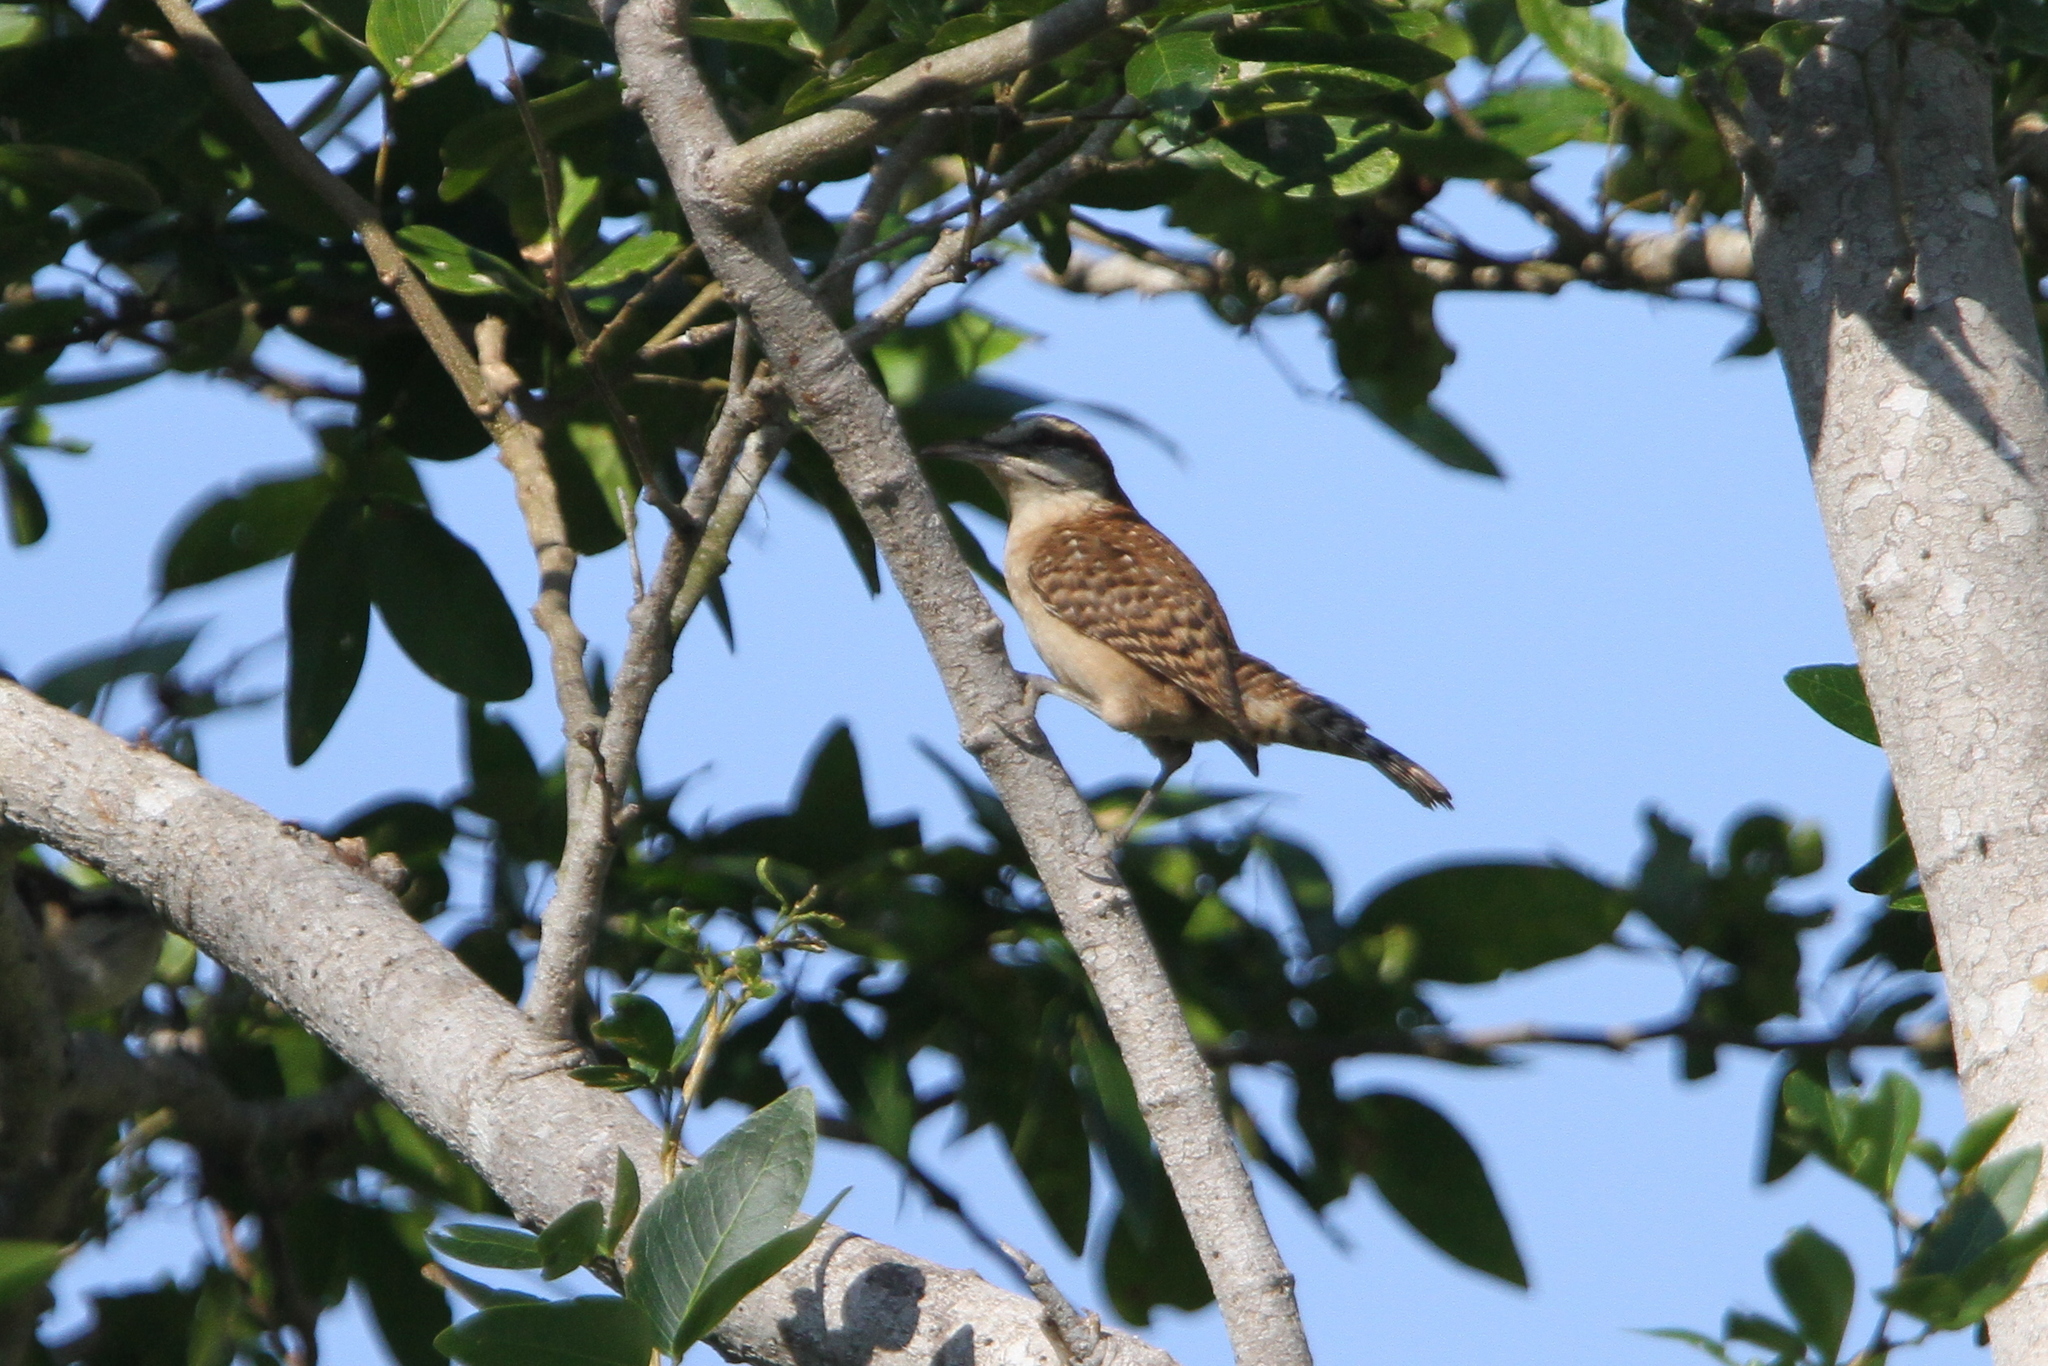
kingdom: Animalia
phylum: Chordata
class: Aves
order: Passeriformes
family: Troglodytidae
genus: Campylorhynchus
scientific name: Campylorhynchus rufinucha
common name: Rufous-naped wren
